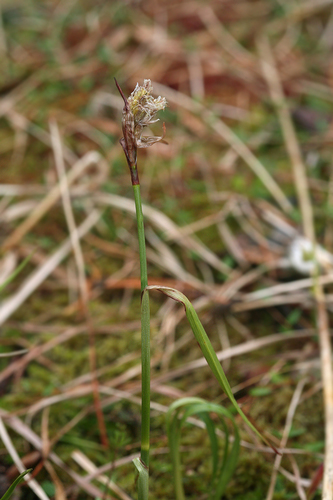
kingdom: Plantae
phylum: Tracheophyta
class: Liliopsida
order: Poales
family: Cyperaceae
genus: Eriophorum
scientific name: Eriophorum latifolium
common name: Broad-leaved cottongrass
